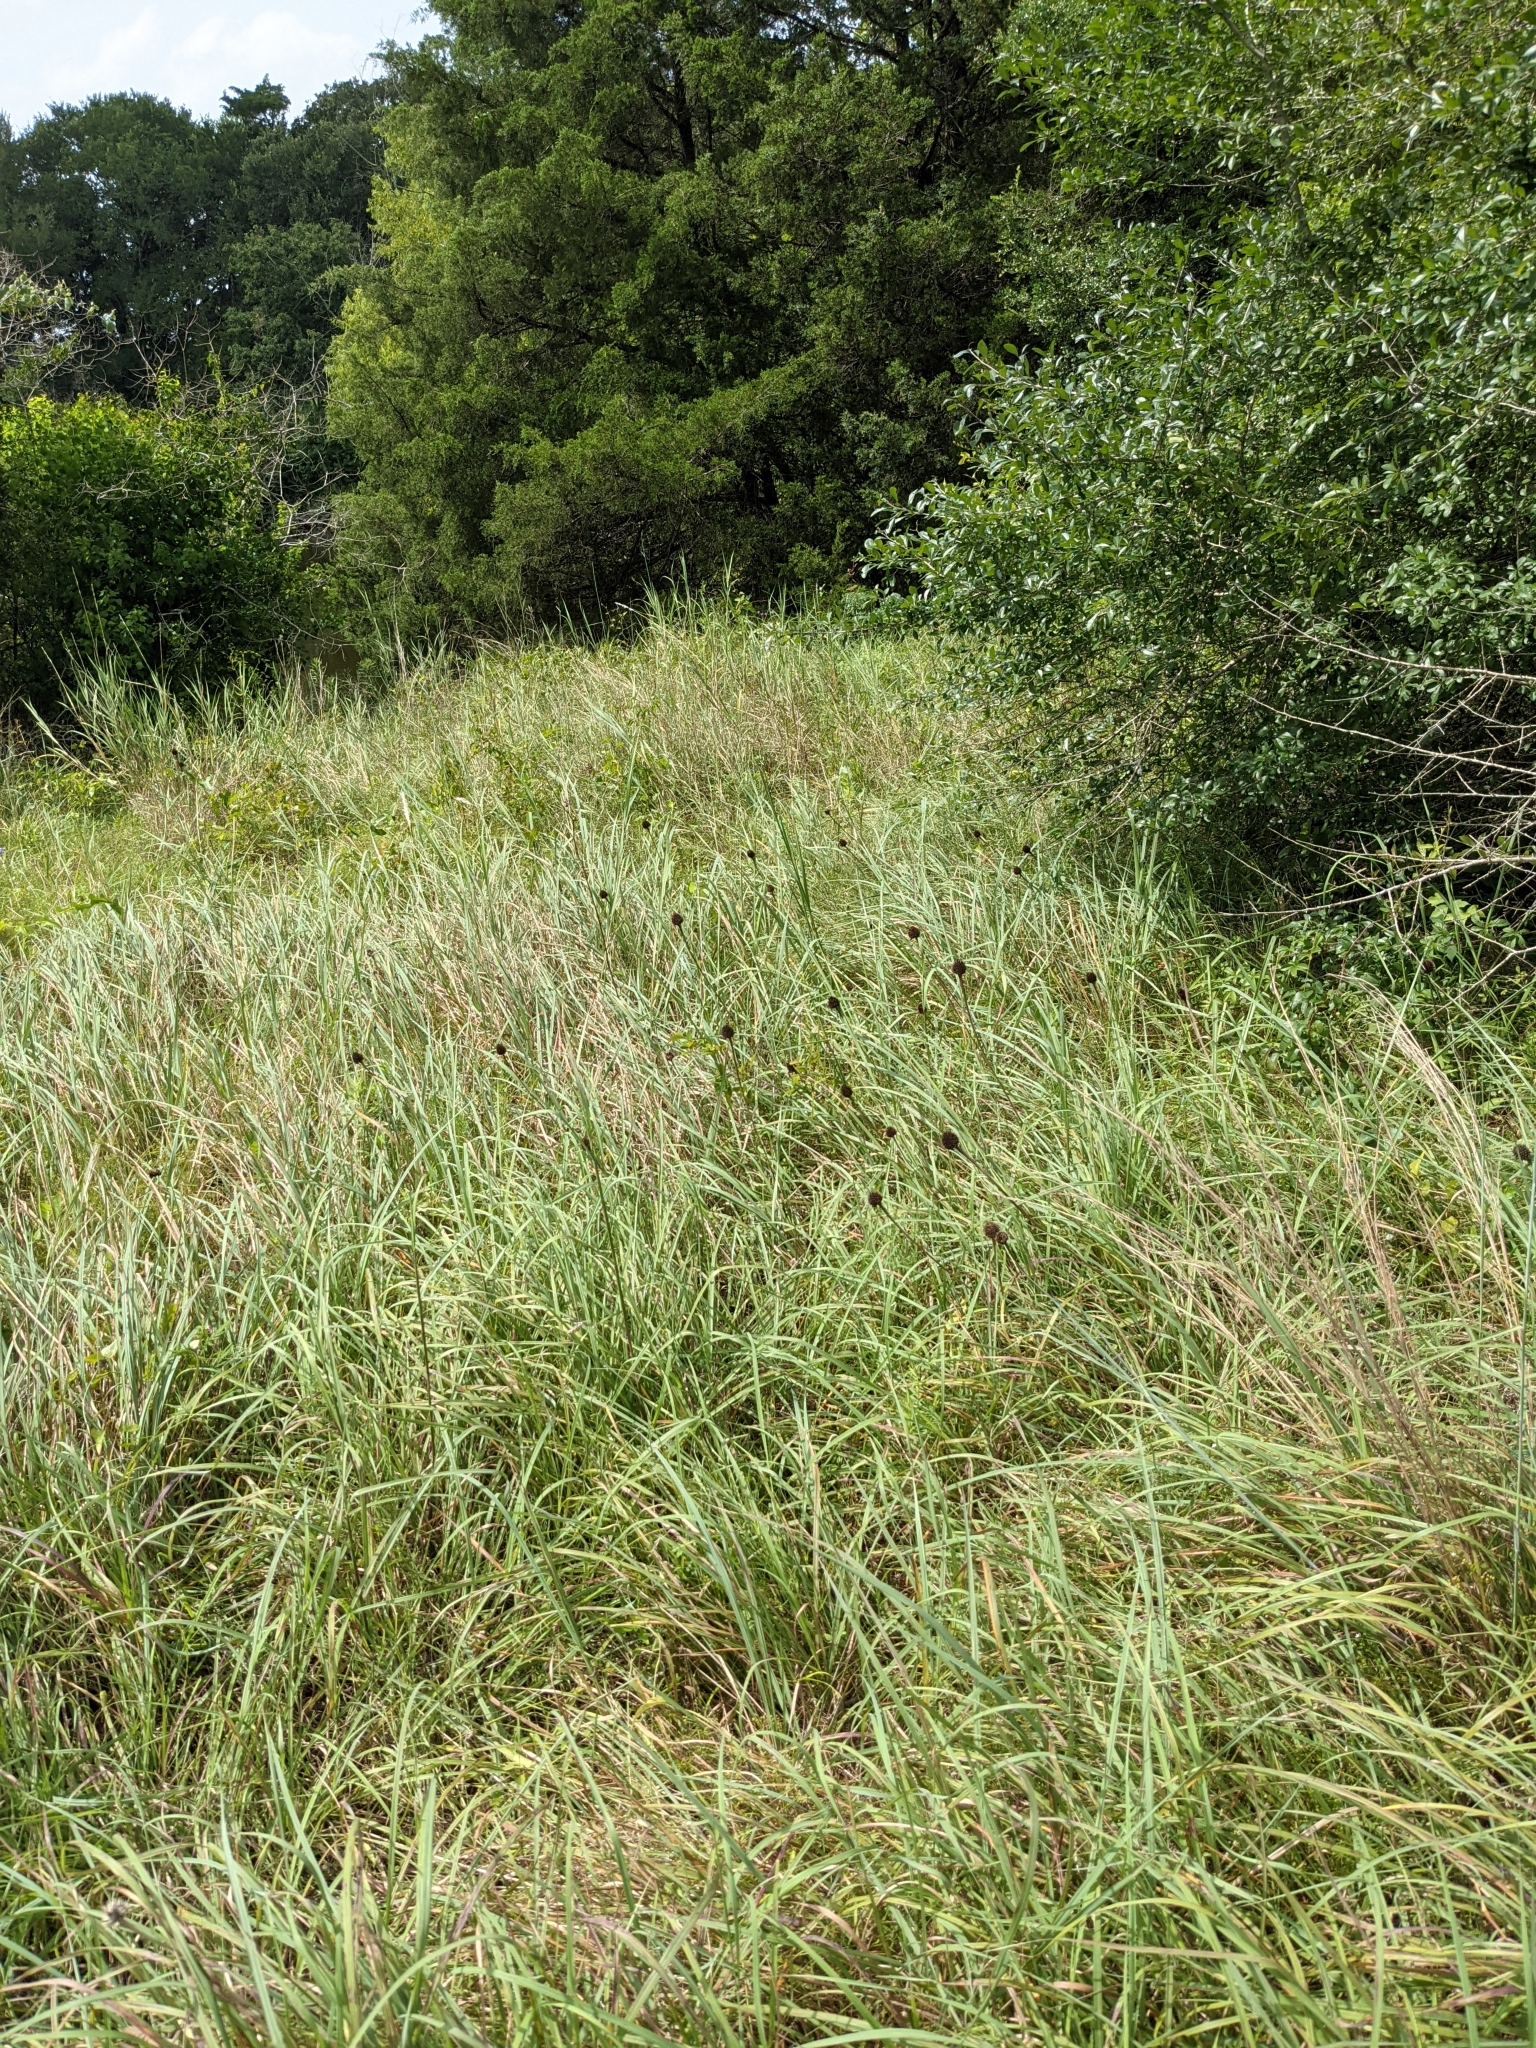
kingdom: Plantae
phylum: Tracheophyta
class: Magnoliopsida
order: Asterales
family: Asteraceae
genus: Echinacea
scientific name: Echinacea atrorubens
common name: Topeka purple-coneflower
